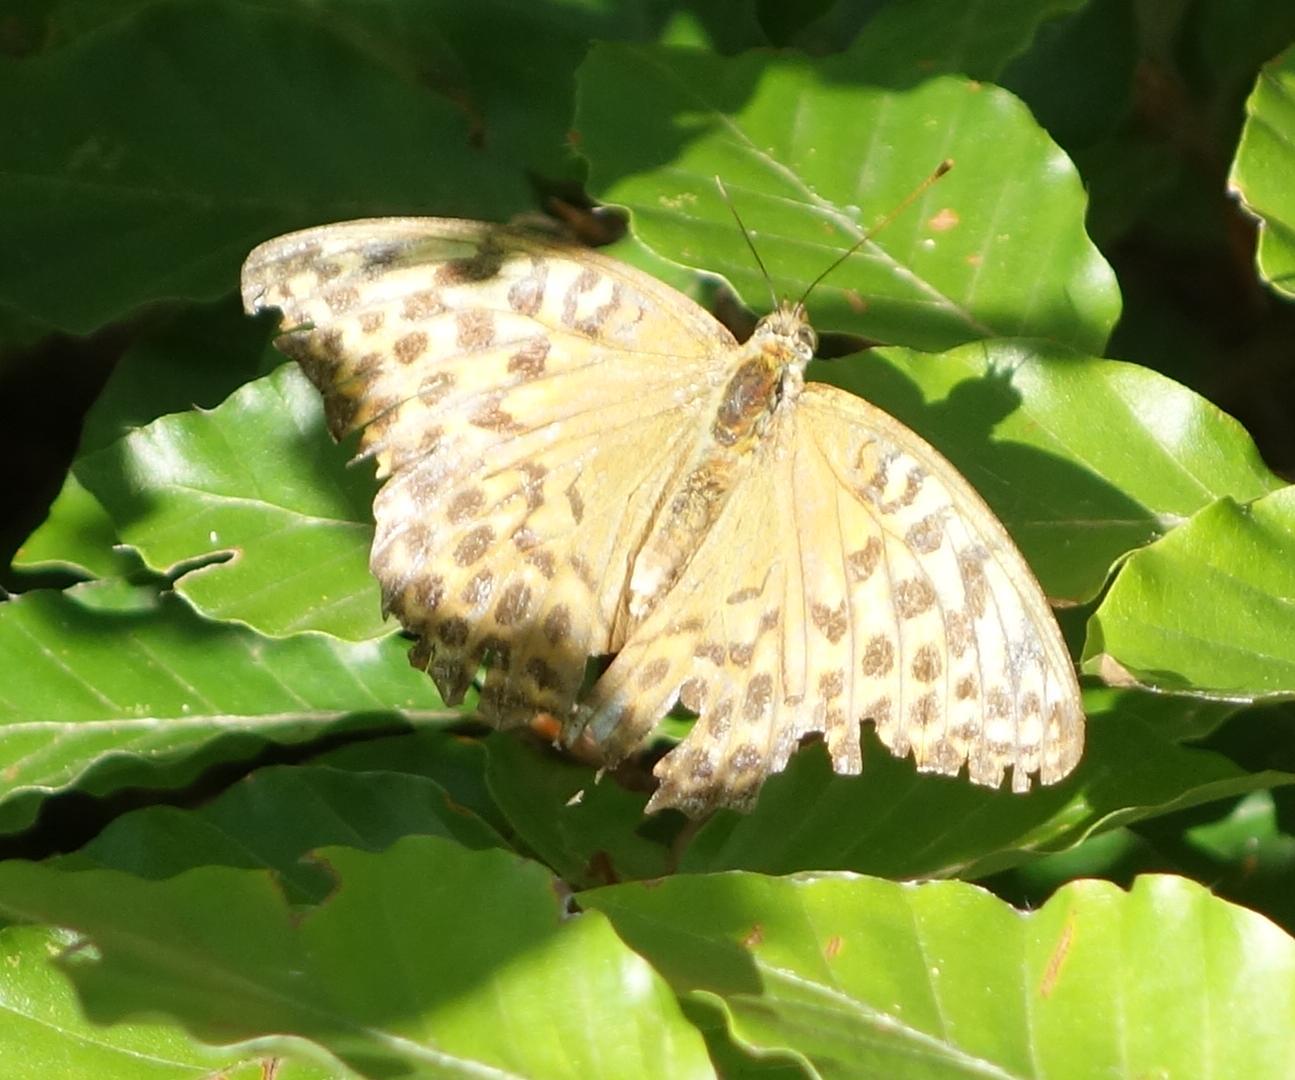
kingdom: Animalia
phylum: Arthropoda
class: Insecta
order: Lepidoptera
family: Nymphalidae
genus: Argynnis
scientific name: Argynnis paphia
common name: Silver-washed fritillary
